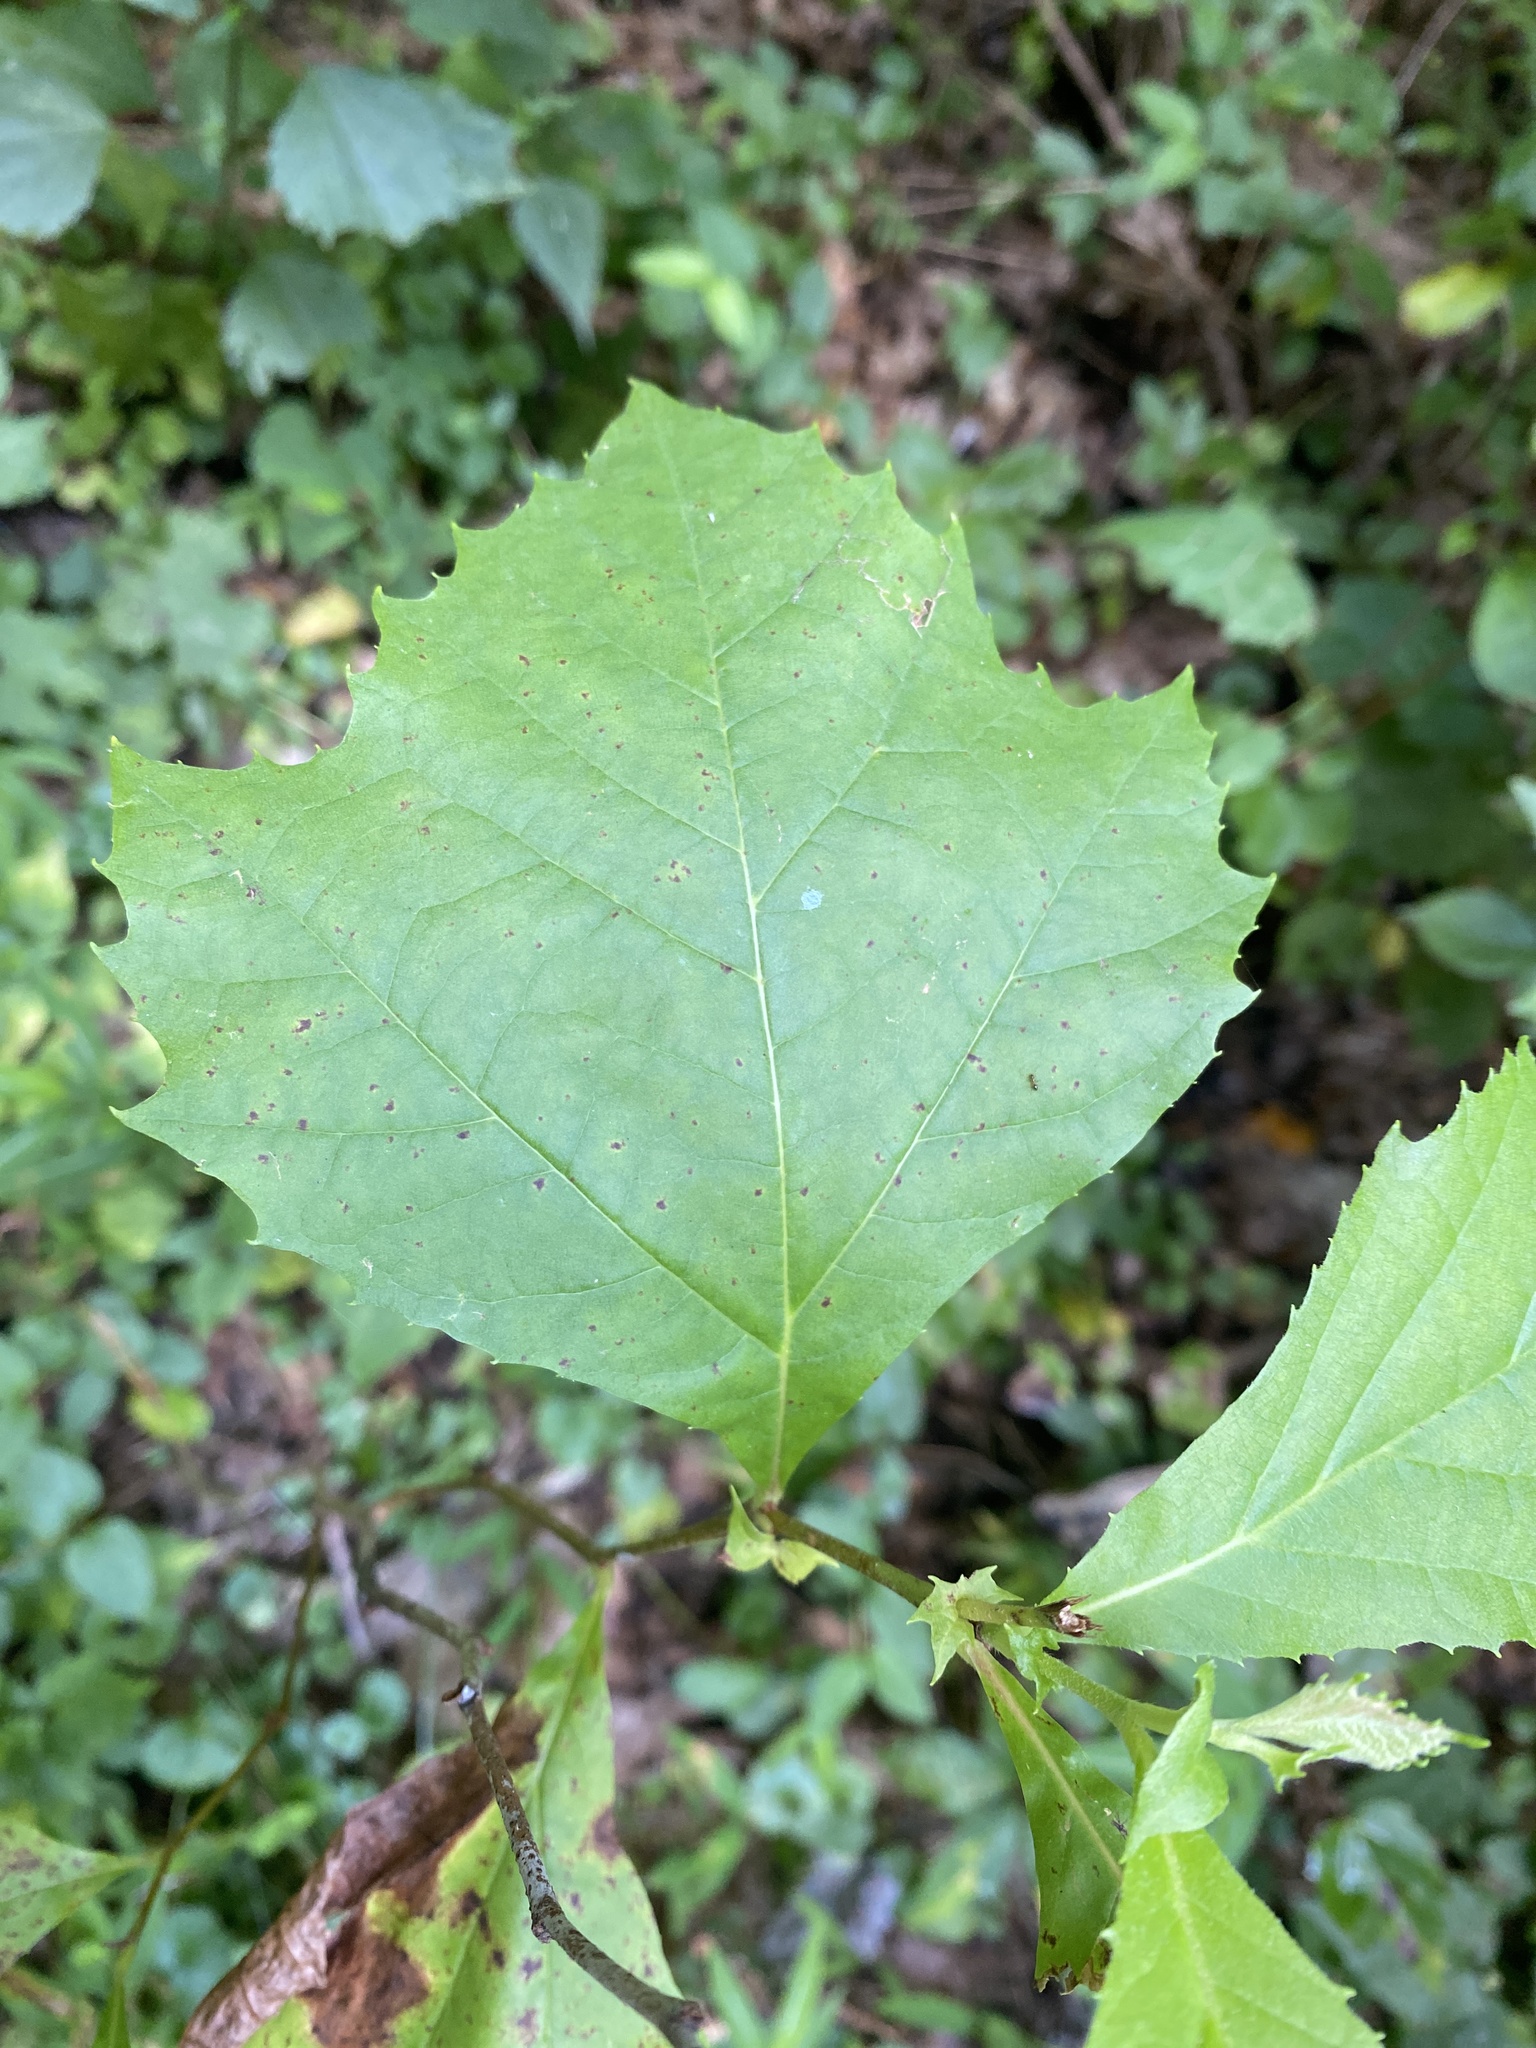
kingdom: Plantae
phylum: Tracheophyta
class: Magnoliopsida
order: Proteales
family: Platanaceae
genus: Platanus
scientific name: Platanus occidentalis
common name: American sycamore
